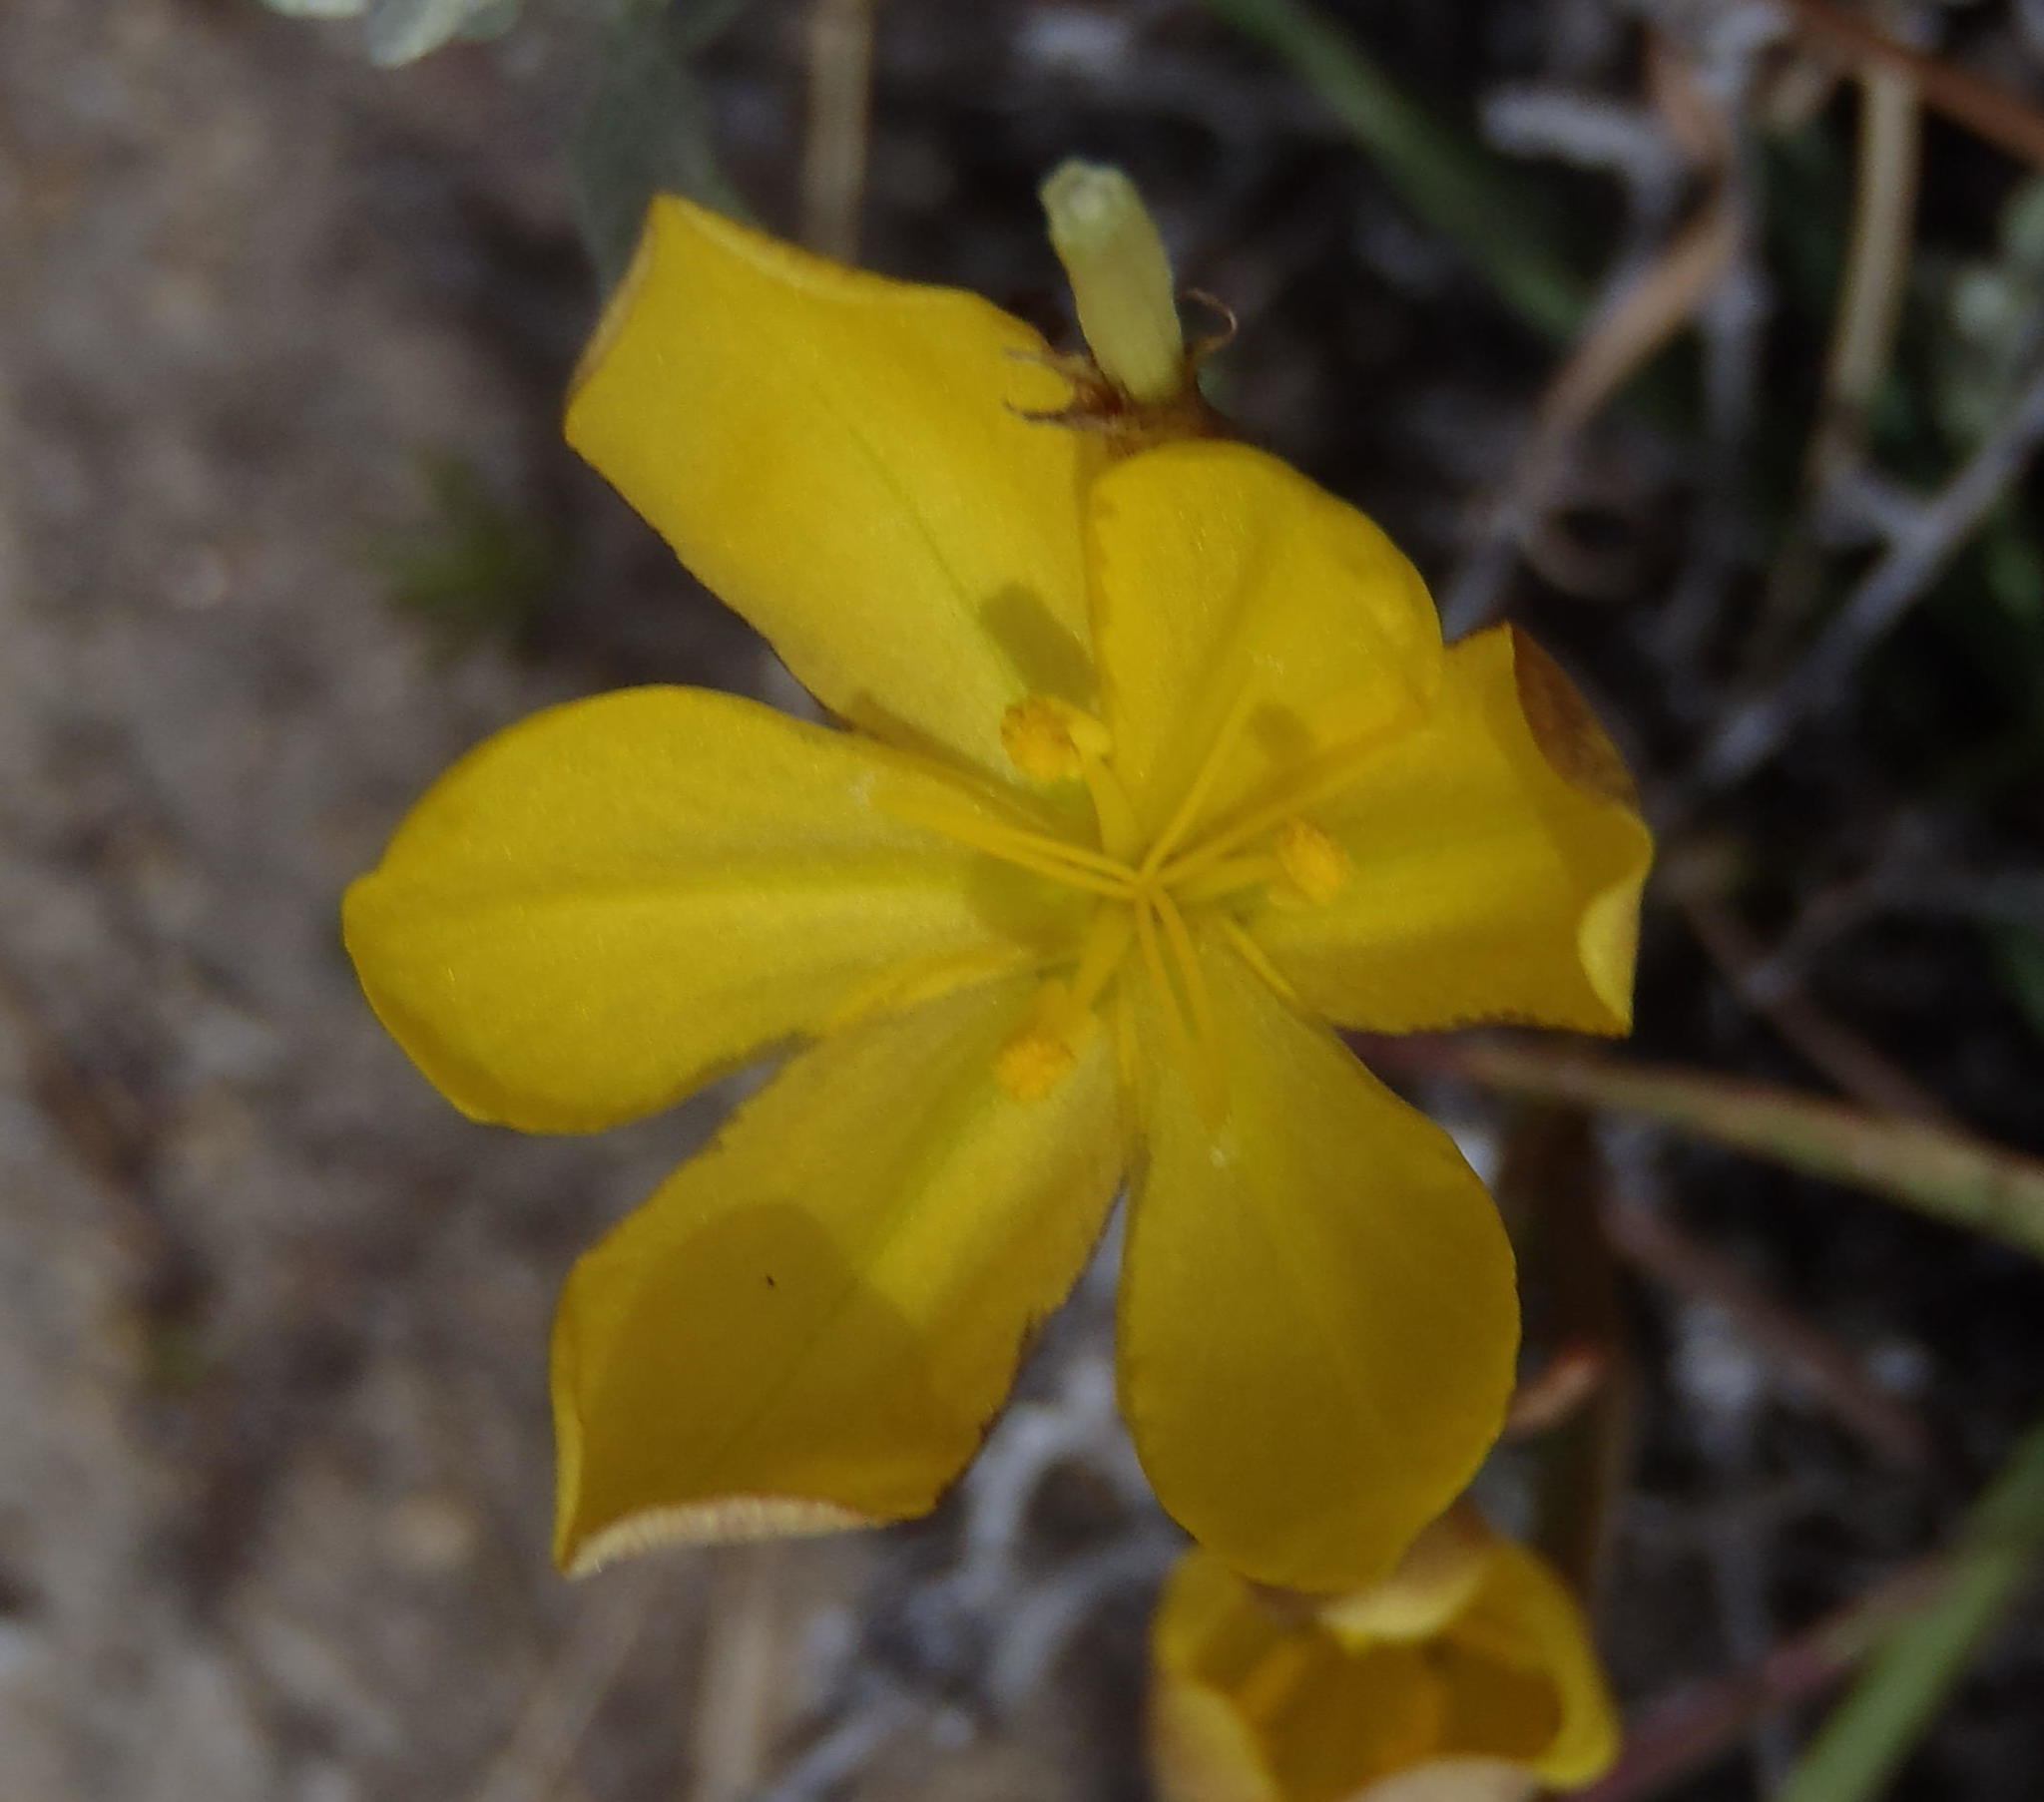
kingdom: Plantae
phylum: Tracheophyta
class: Liliopsida
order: Asparagales
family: Iridaceae
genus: Moraea
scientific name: Moraea lewisiae
